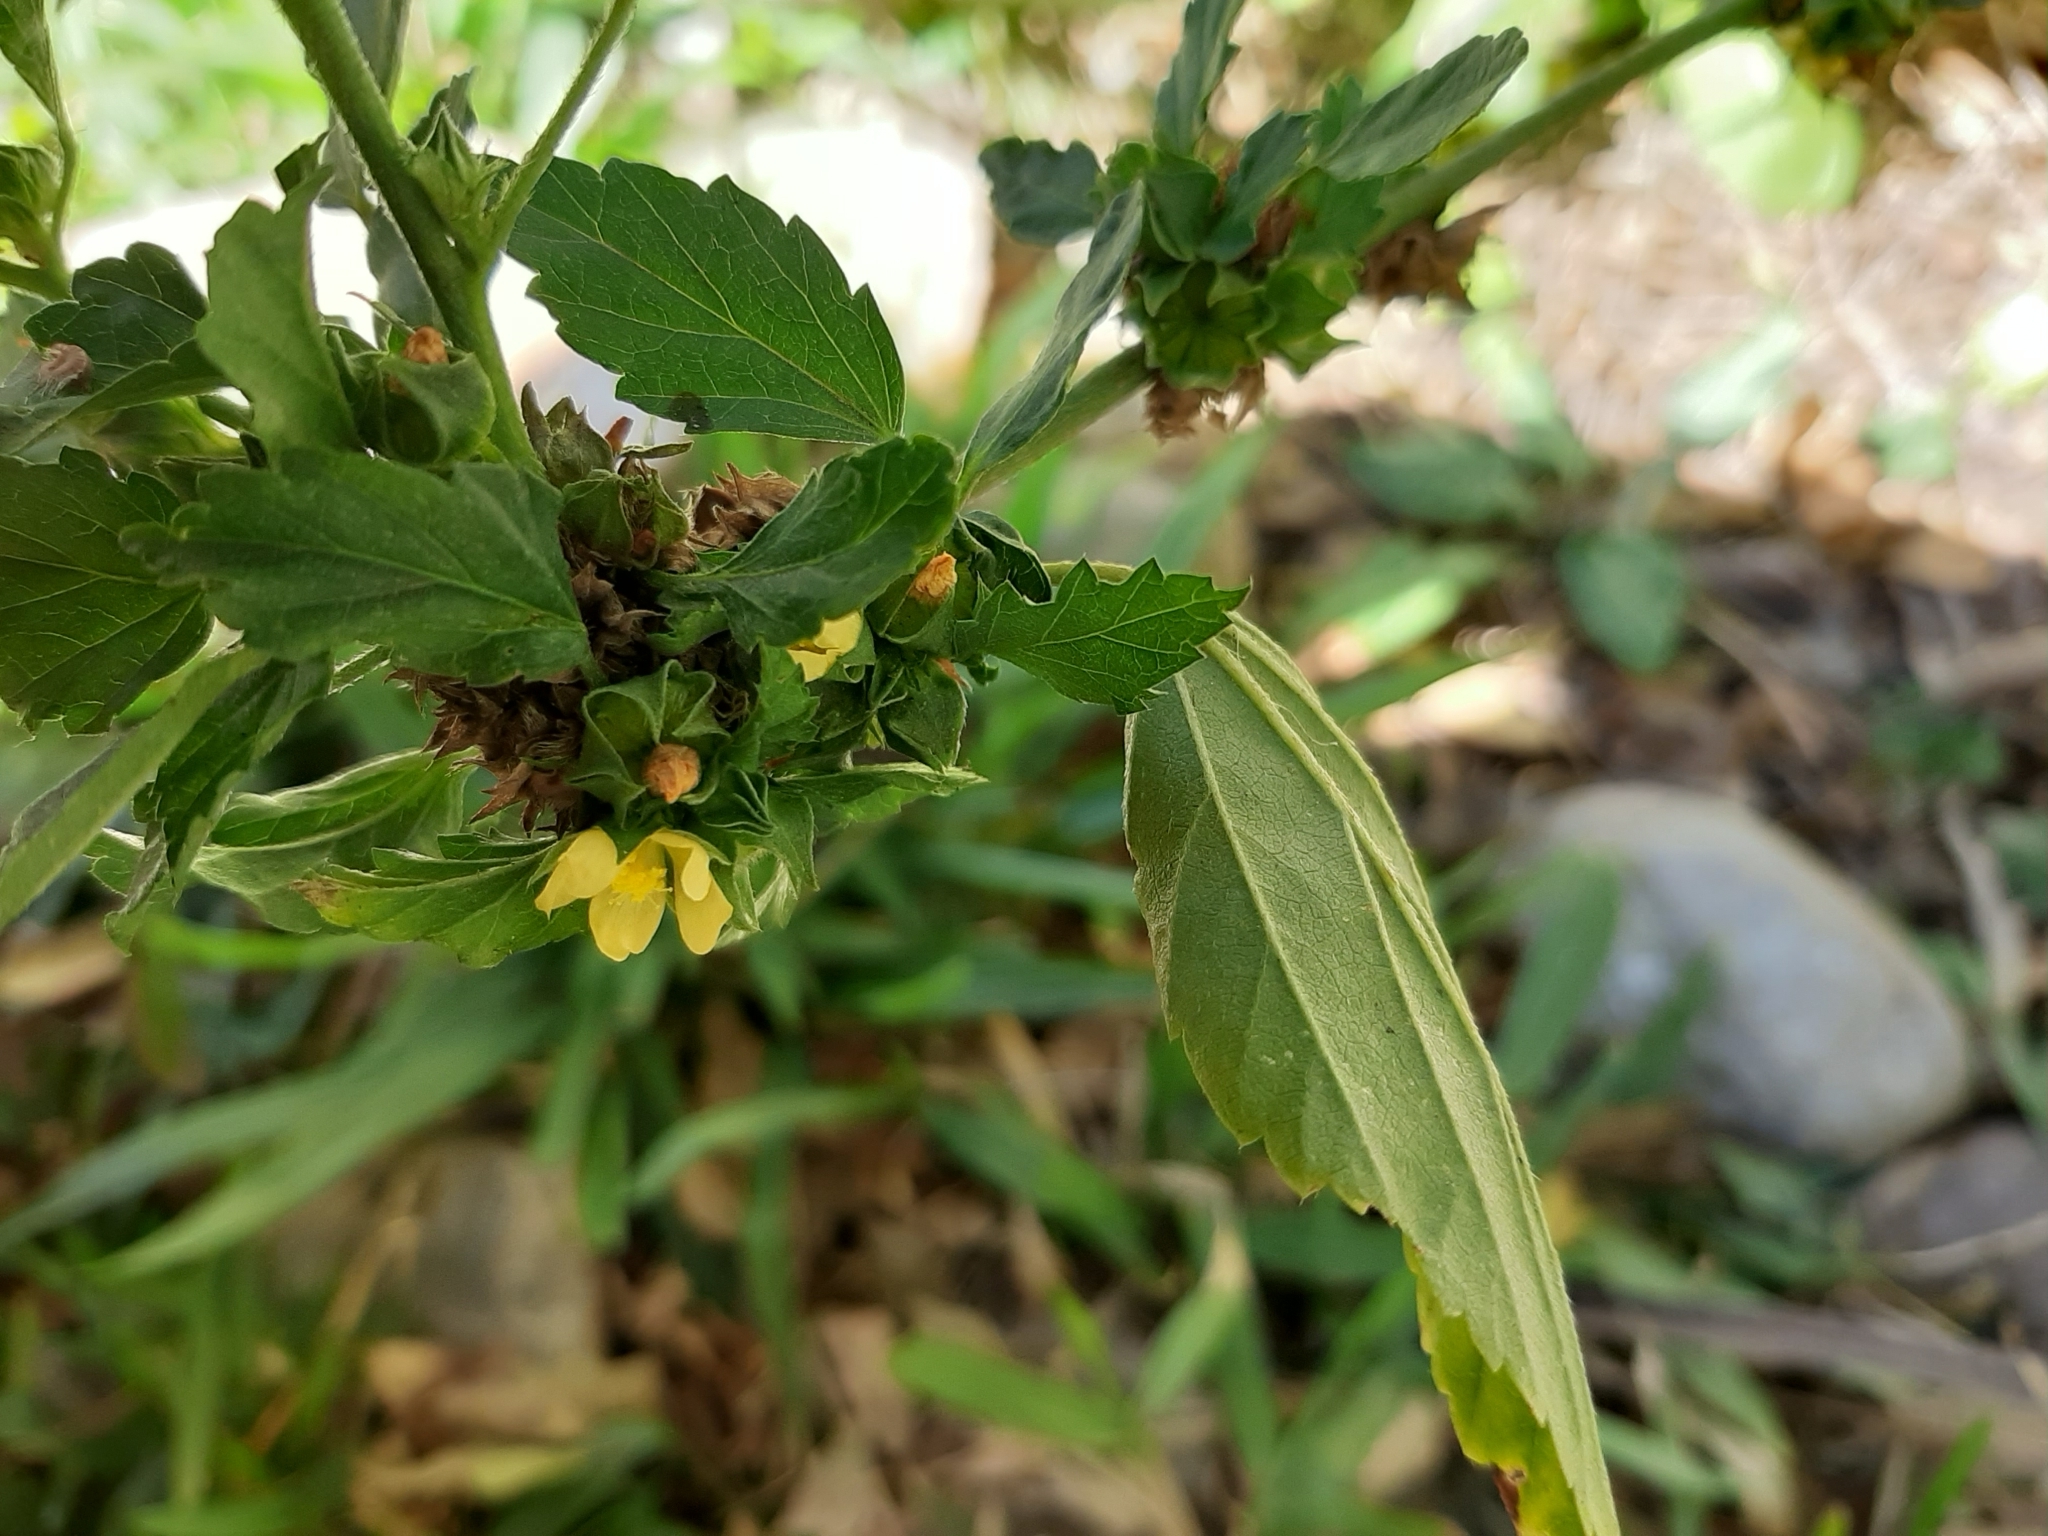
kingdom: Plantae
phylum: Tracheophyta
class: Magnoliopsida
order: Malvales
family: Malvaceae
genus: Malvastrum
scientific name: Malvastrum coromandelianum
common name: Threelobe false mallow
